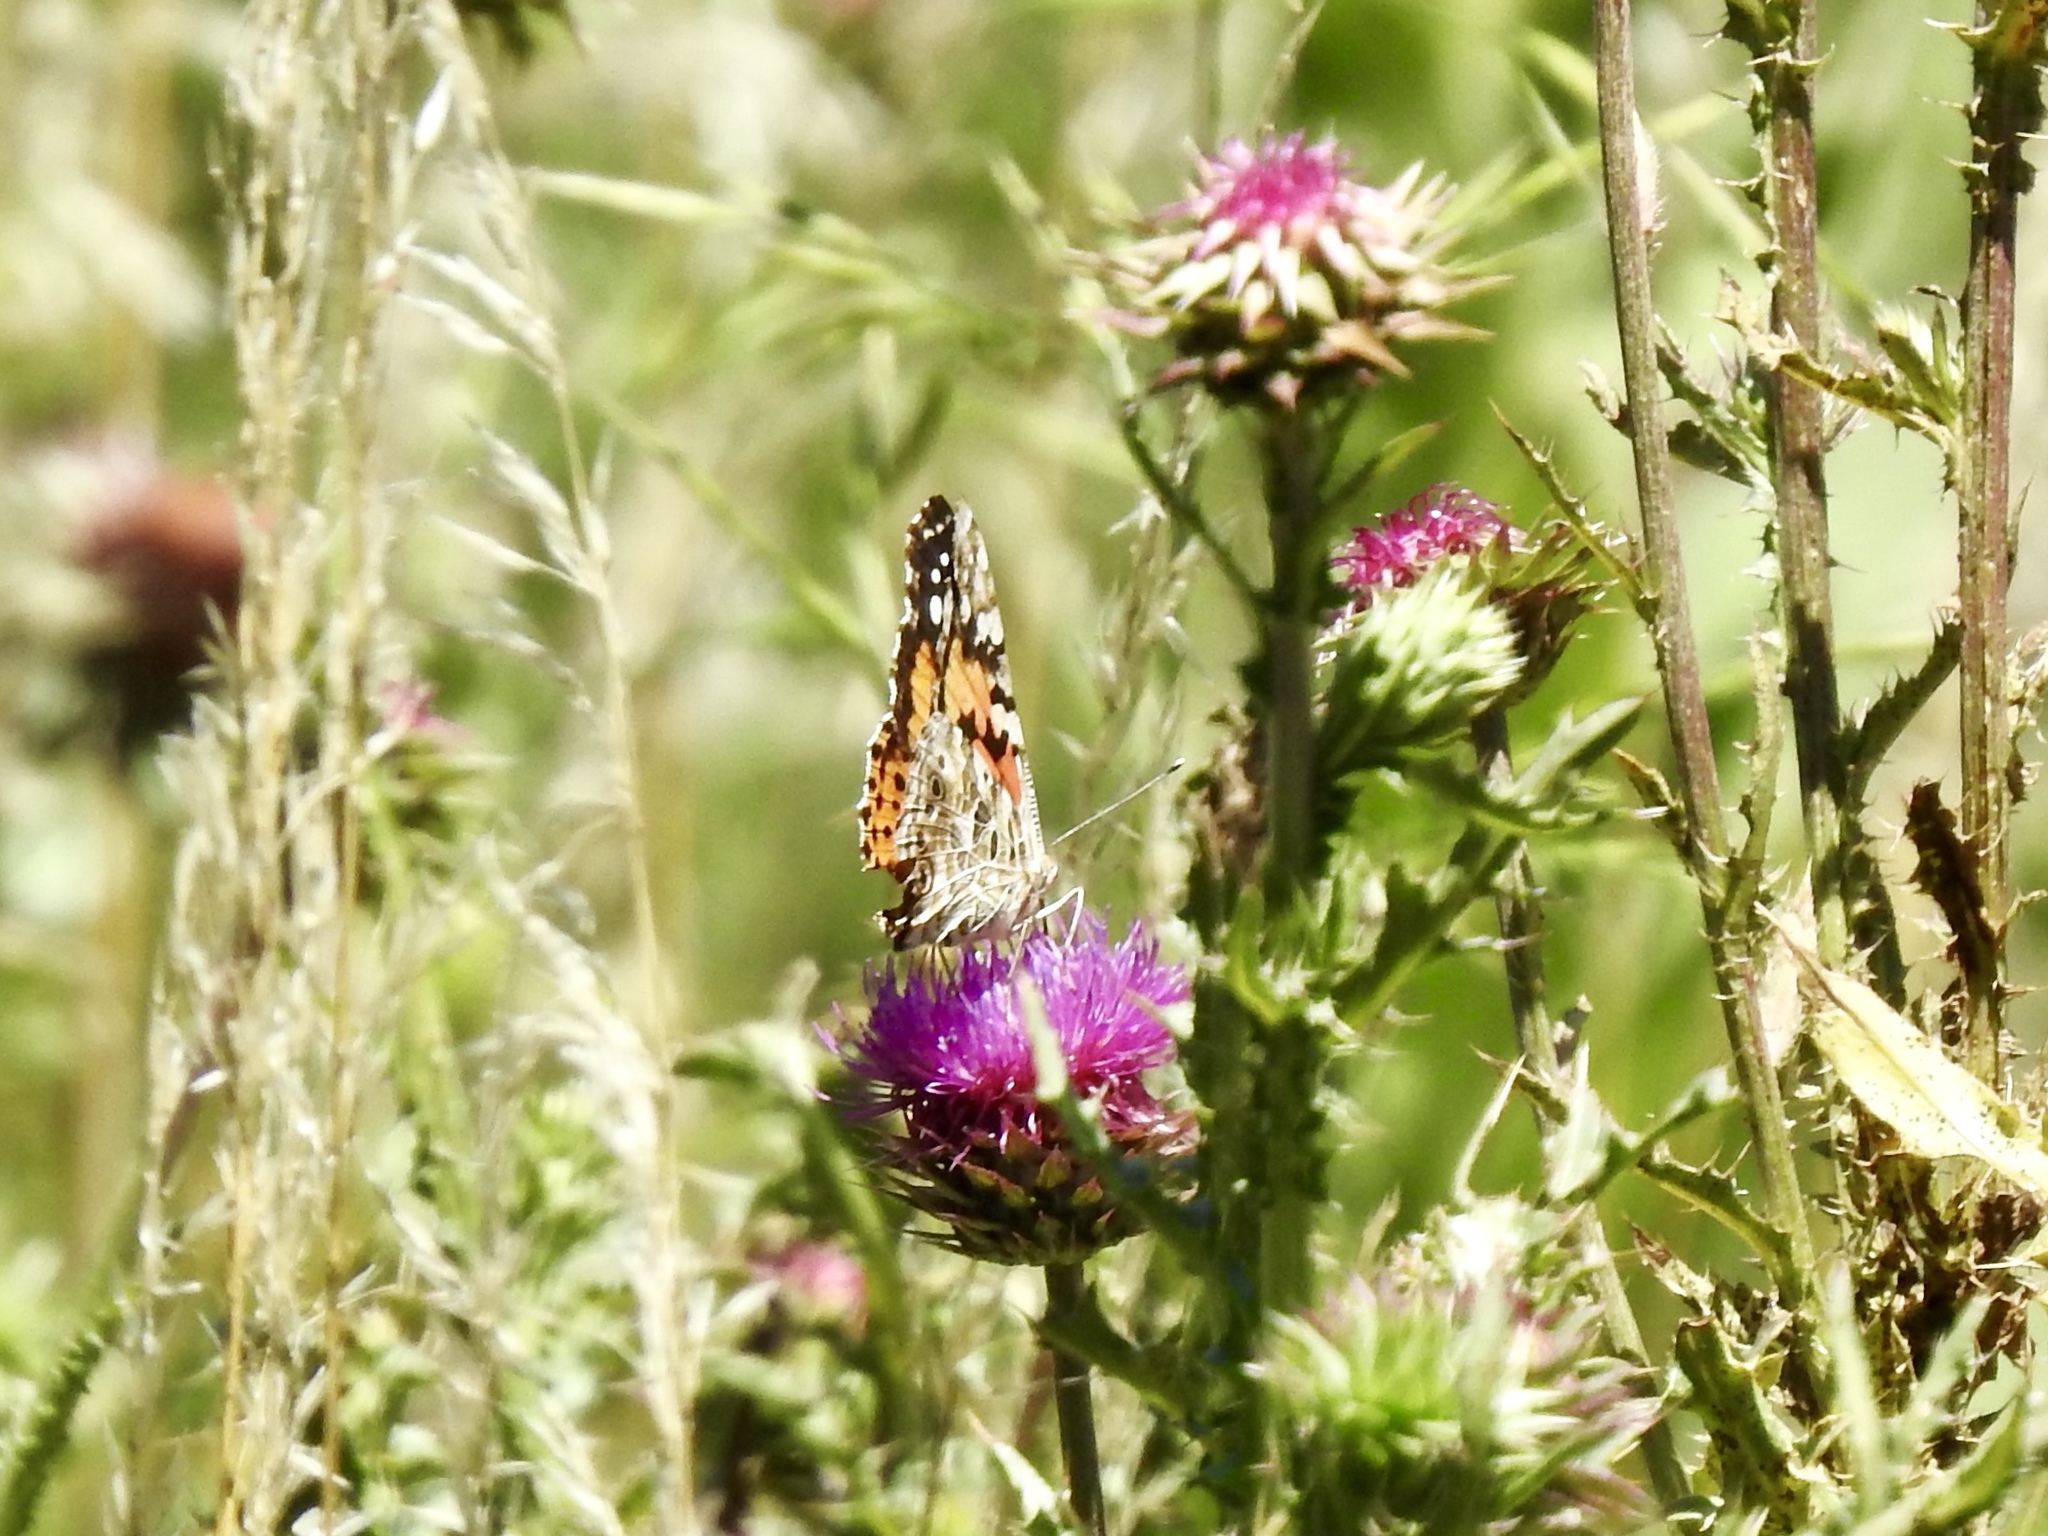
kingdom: Animalia
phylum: Arthropoda
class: Insecta
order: Lepidoptera
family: Nymphalidae
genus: Vanessa
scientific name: Vanessa cardui
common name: Painted lady
